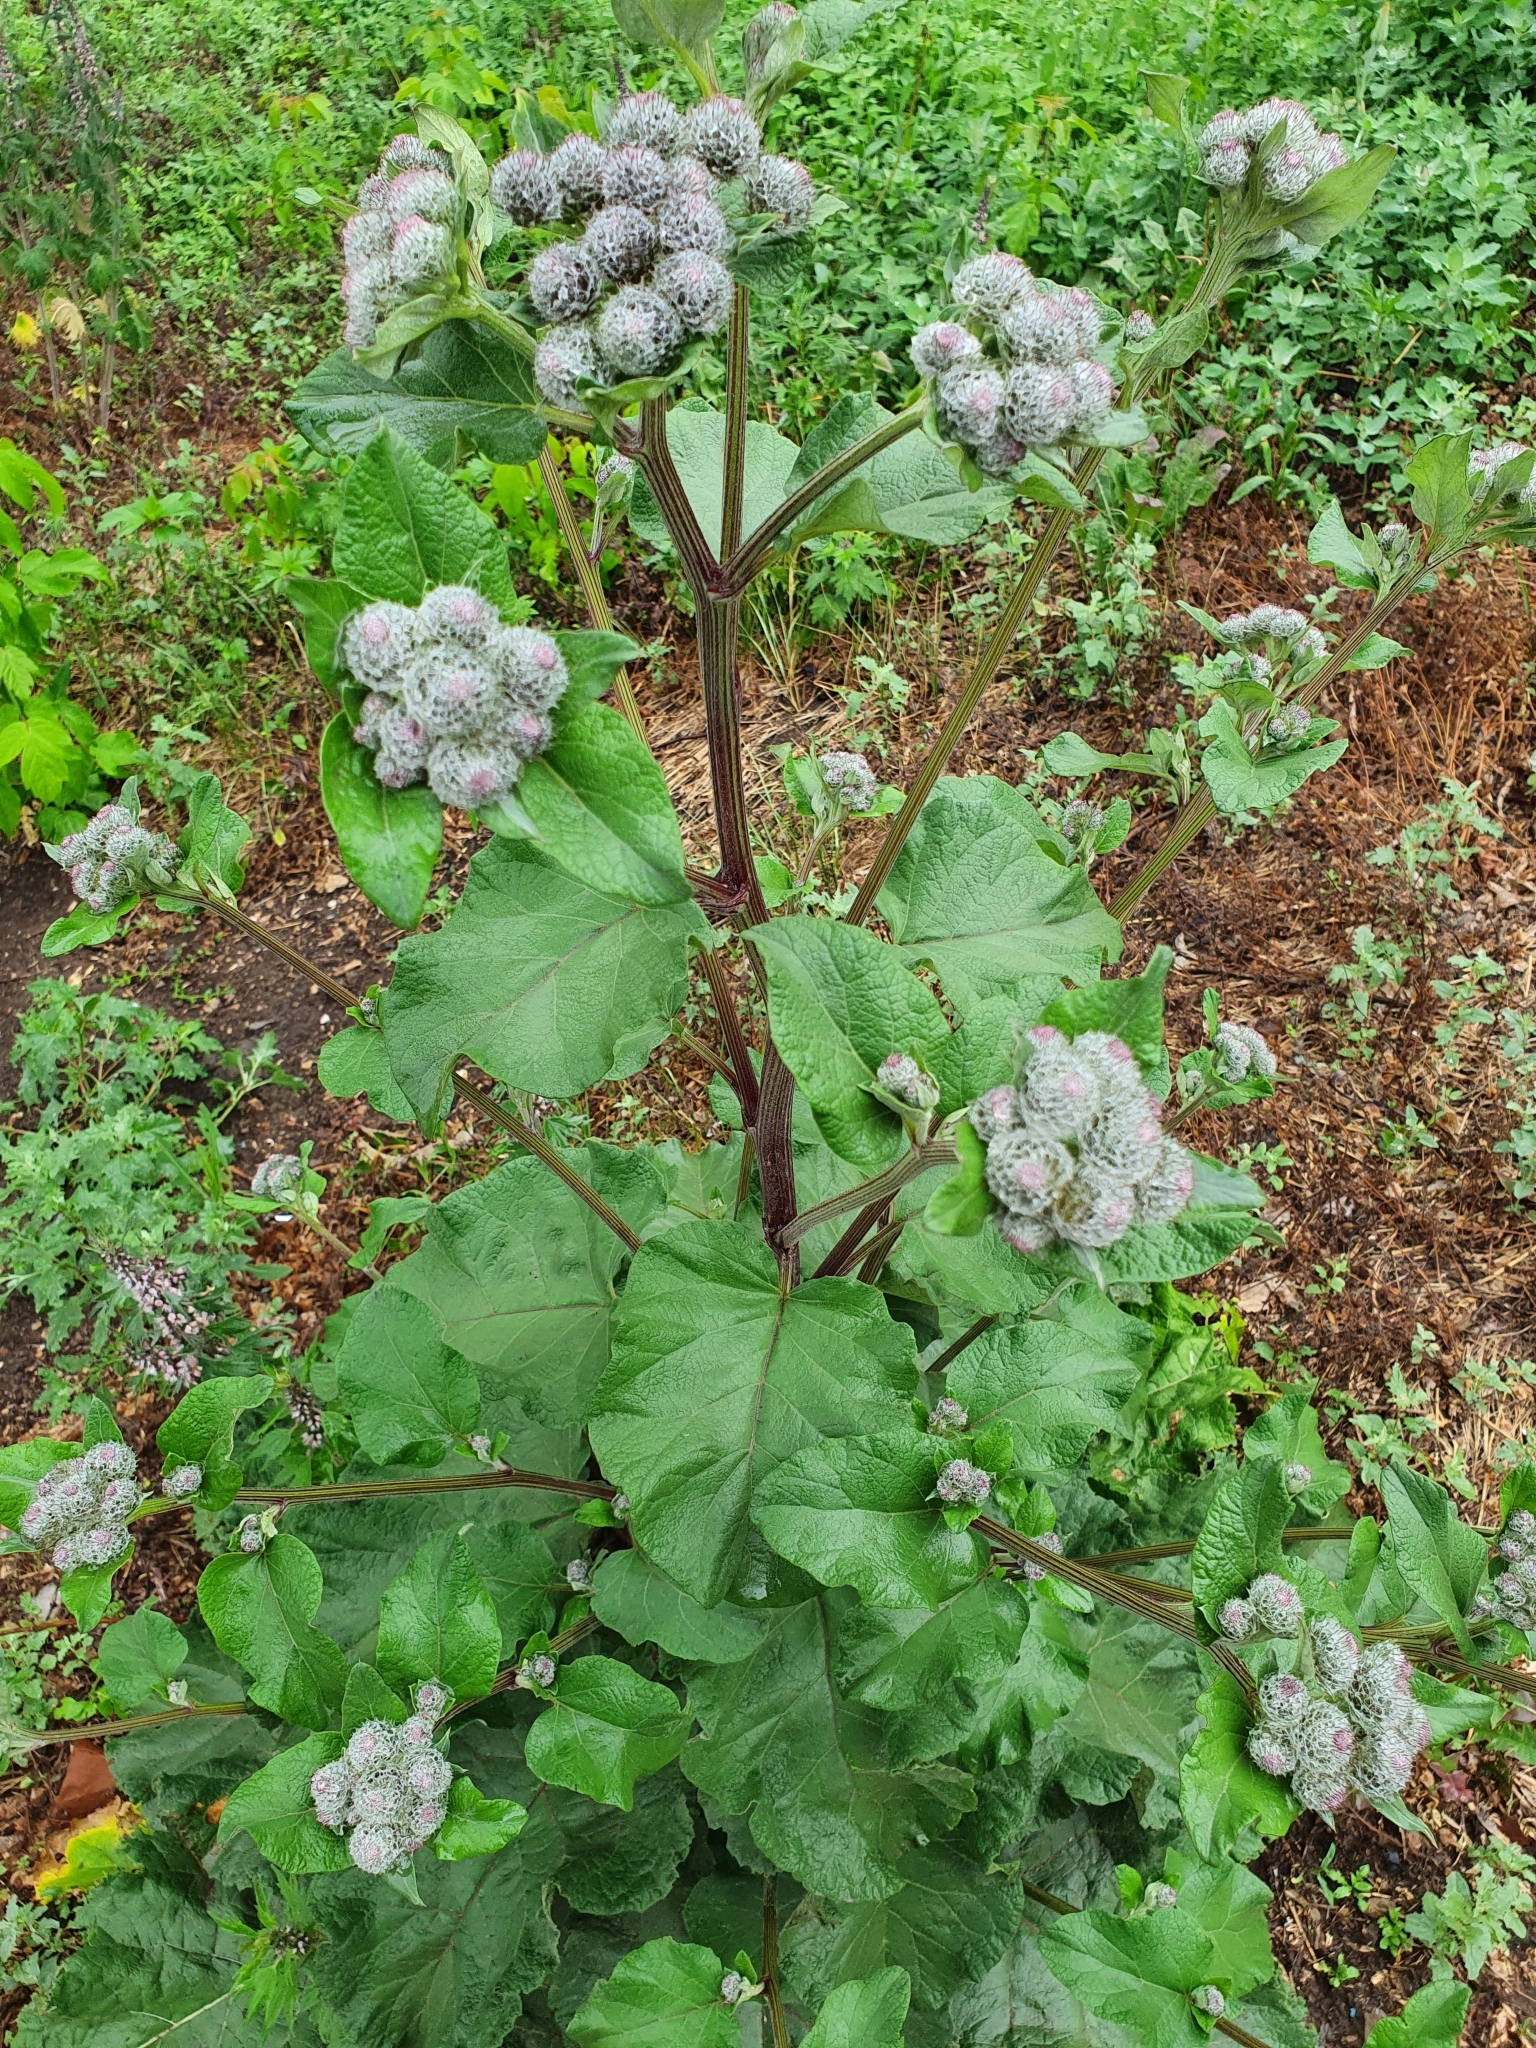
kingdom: Plantae
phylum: Tracheophyta
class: Magnoliopsida
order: Asterales
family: Asteraceae
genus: Arctium
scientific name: Arctium tomentosum
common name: Woolly burdock
